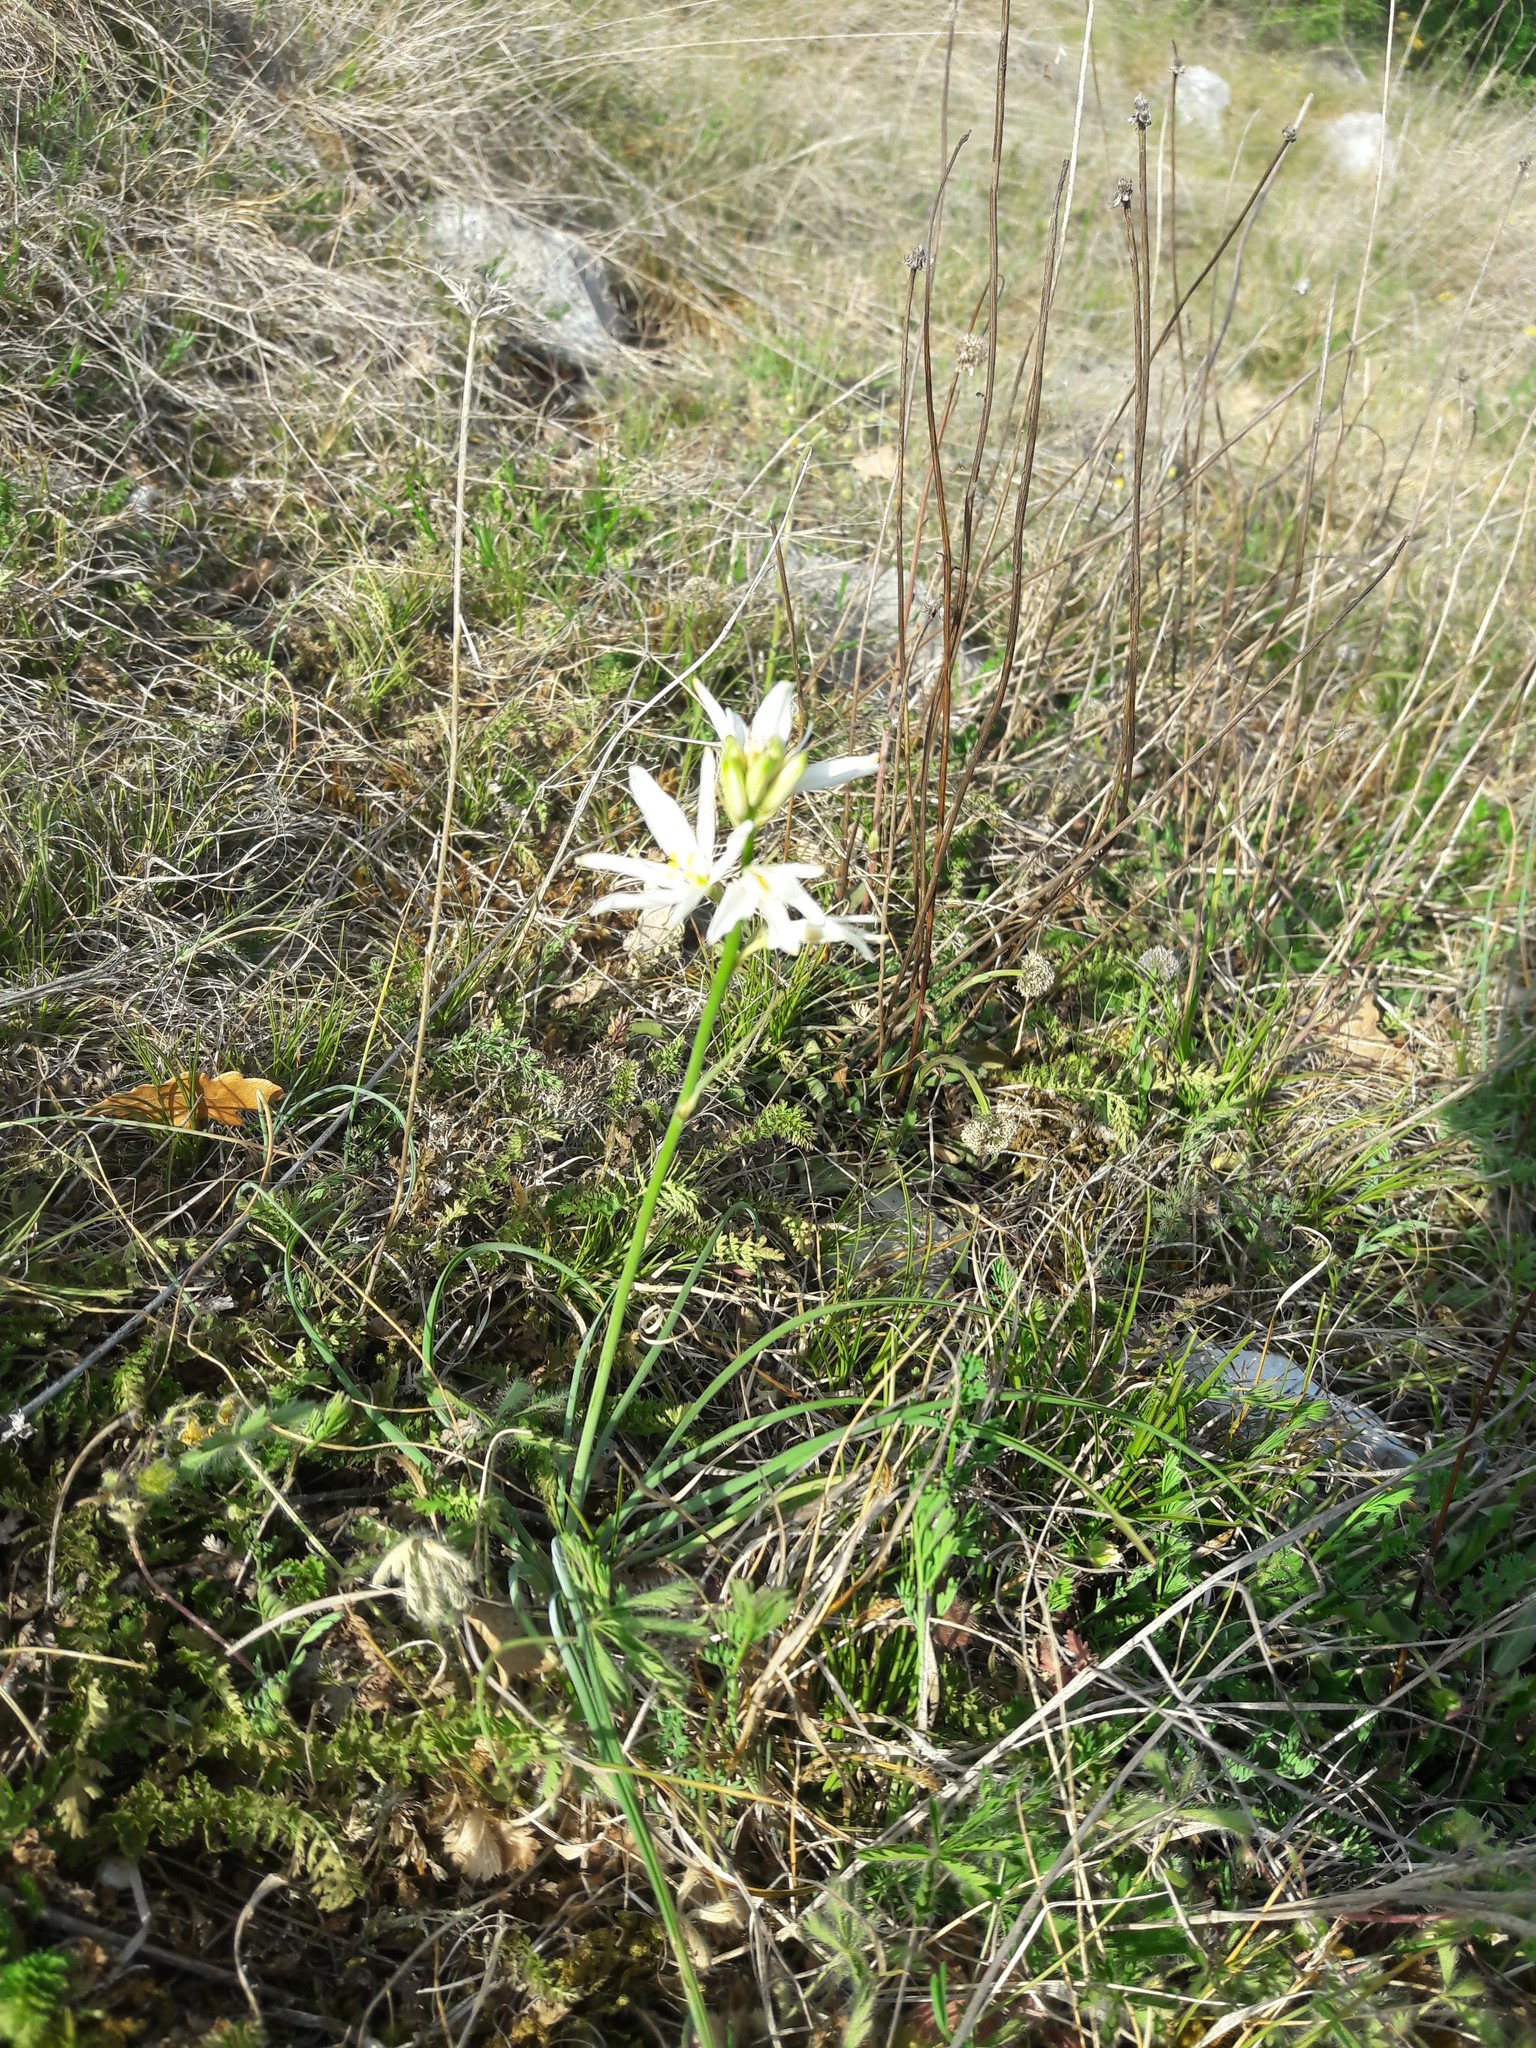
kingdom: Plantae
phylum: Tracheophyta
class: Liliopsida
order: Asparagales
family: Asparagaceae
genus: Anthericum
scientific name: Anthericum liliago
